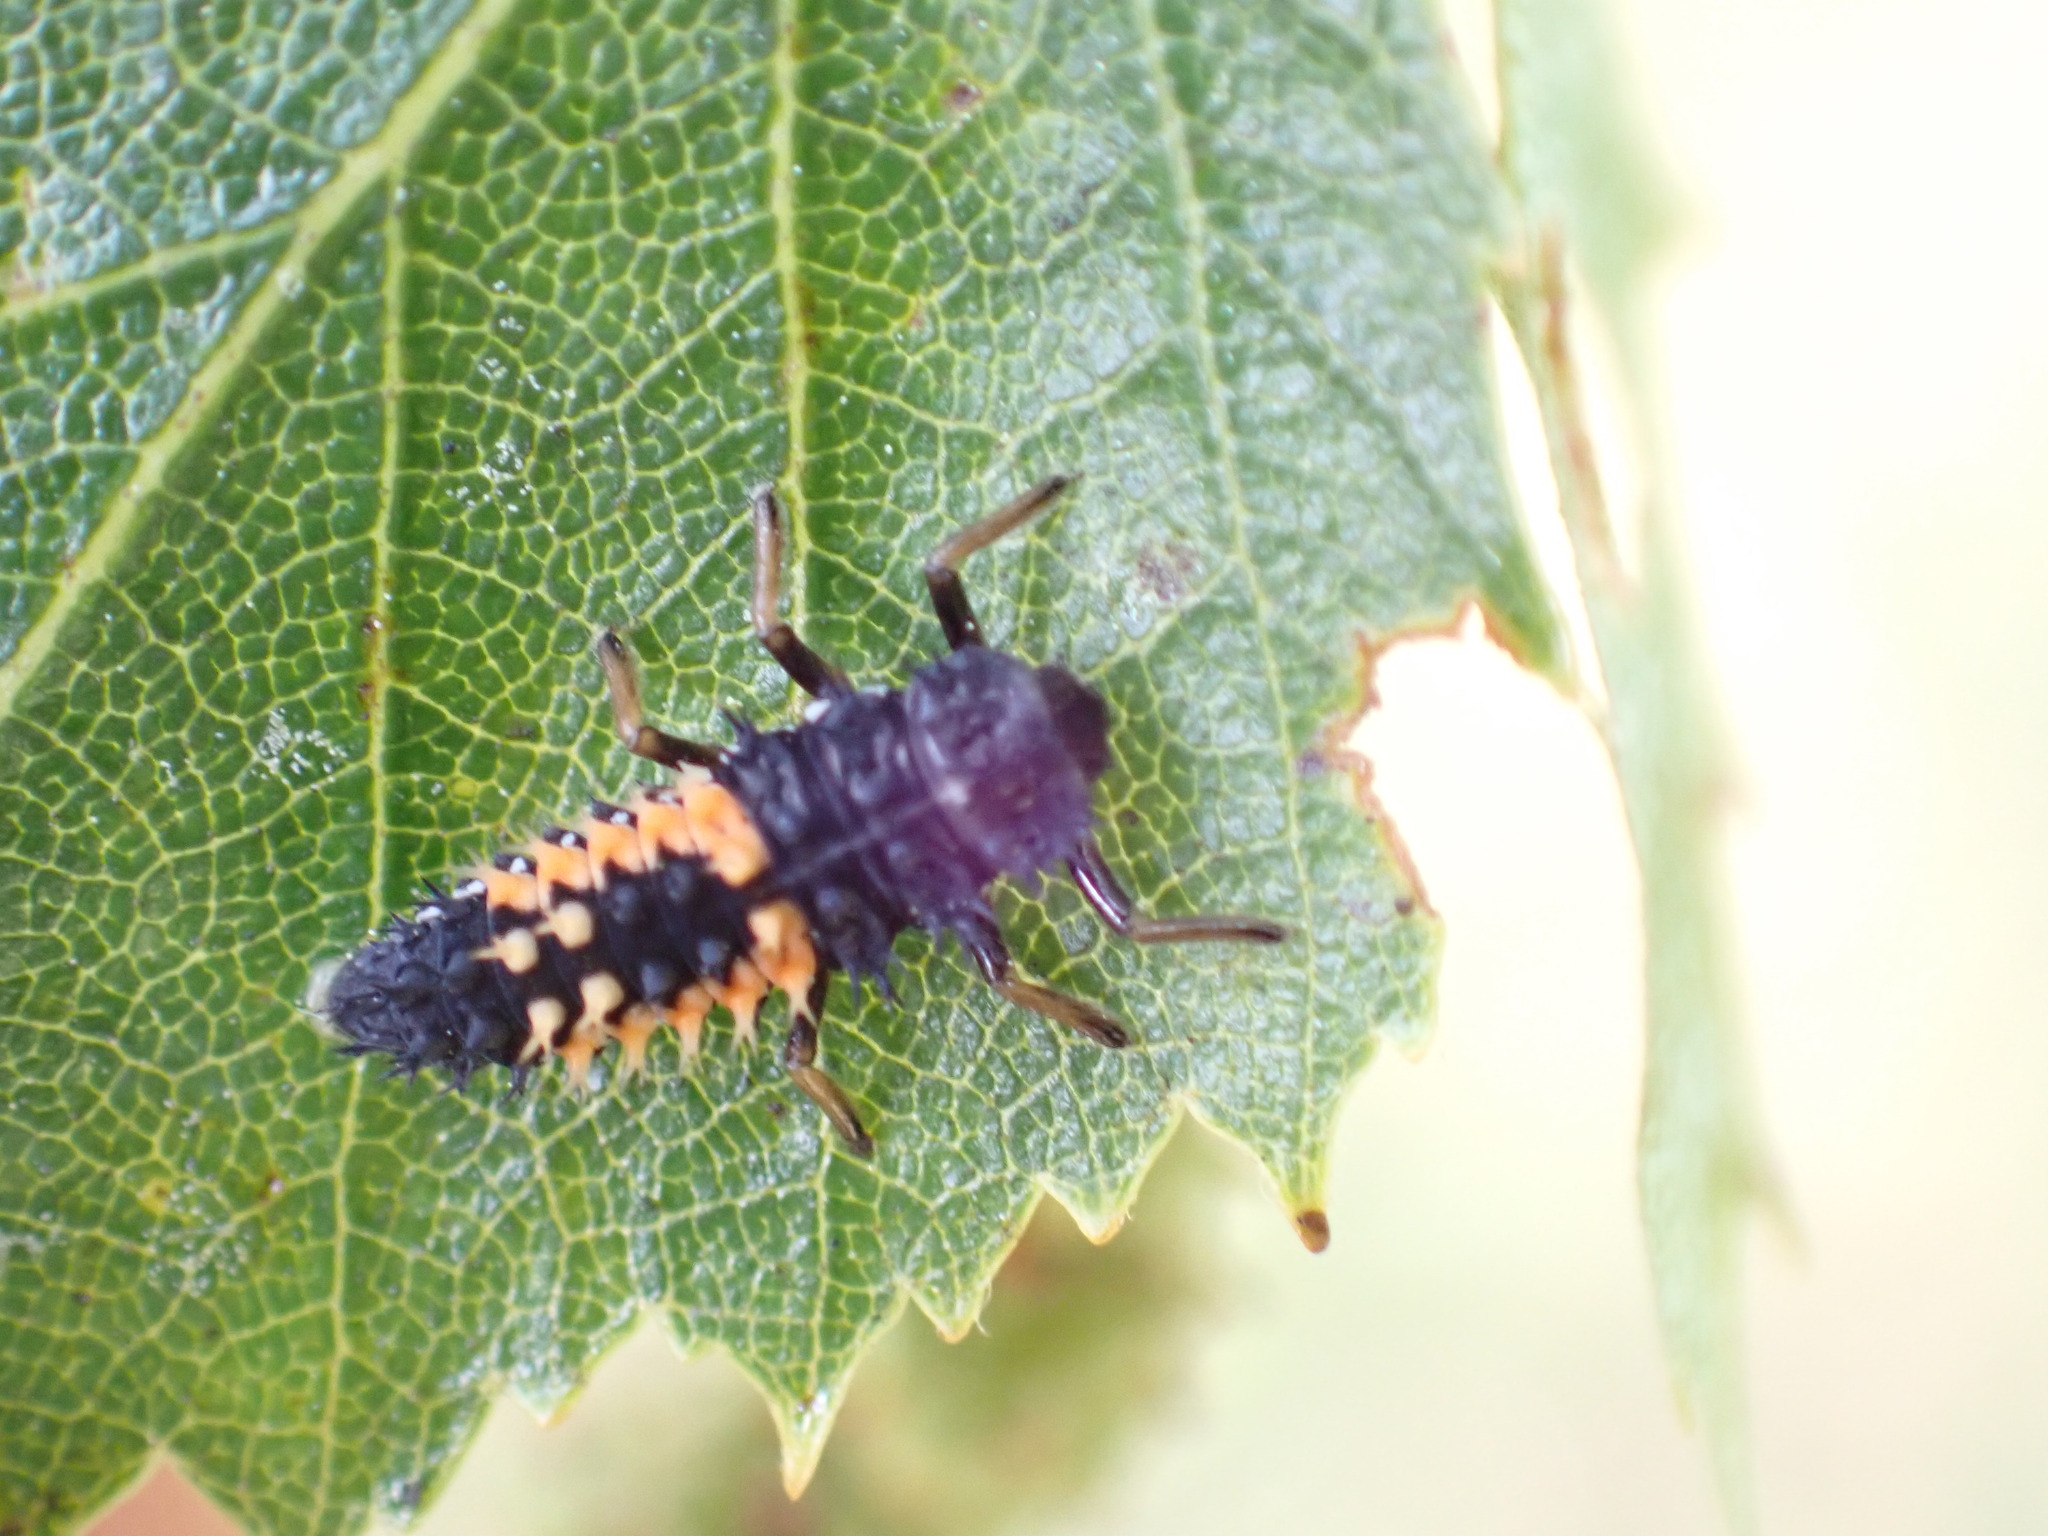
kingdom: Animalia
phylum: Arthropoda
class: Insecta
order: Coleoptera
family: Coccinellidae
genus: Harmonia
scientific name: Harmonia axyridis
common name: Harlequin ladybird
